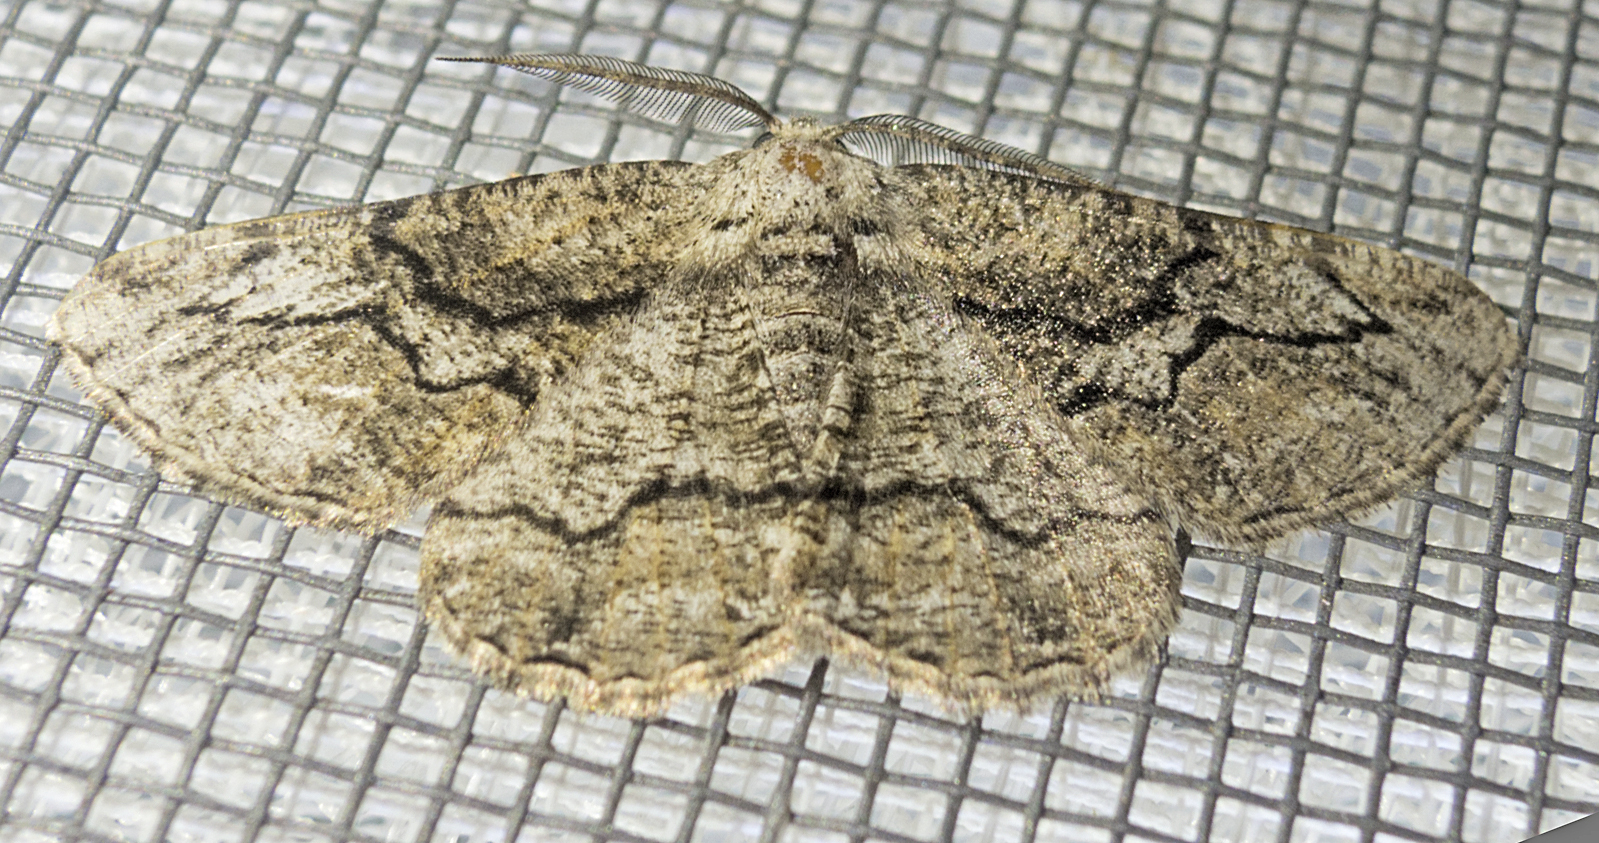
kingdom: Animalia
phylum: Arthropoda
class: Insecta
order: Lepidoptera
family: Geometridae
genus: Synopsia
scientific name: Synopsia sociaria
